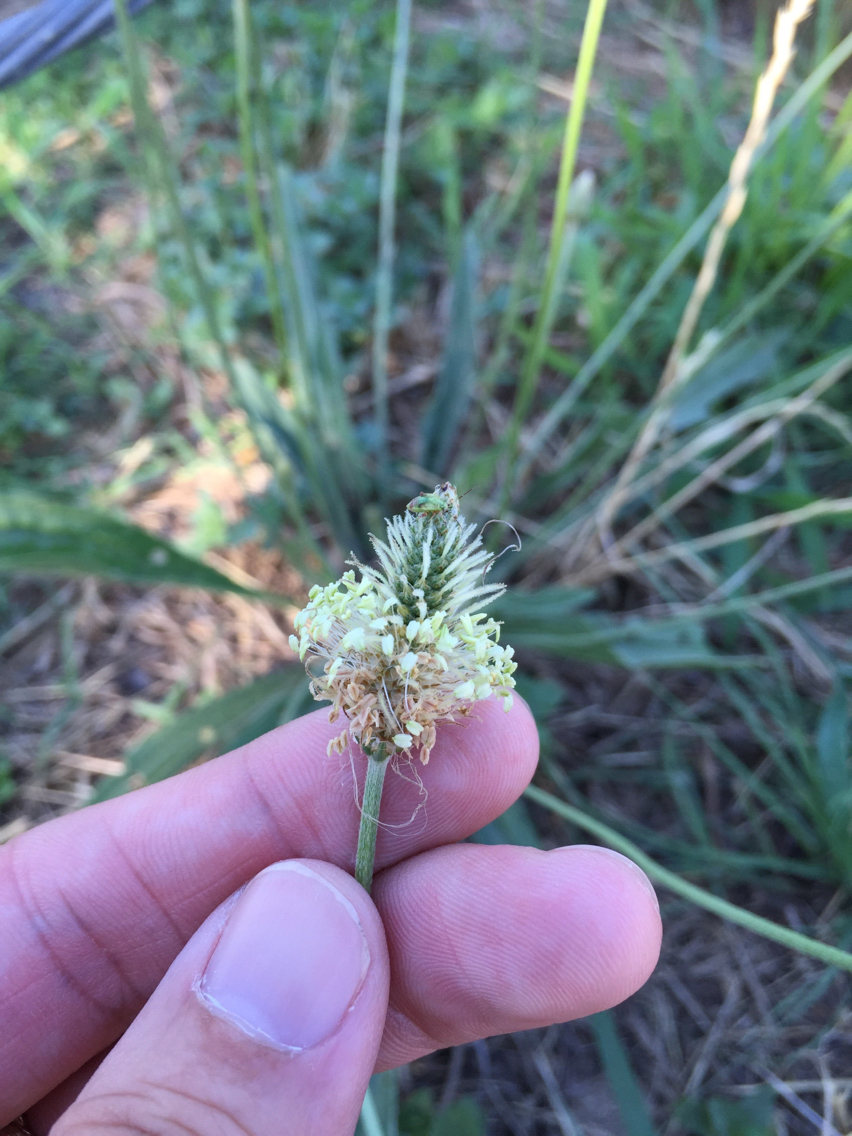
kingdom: Plantae
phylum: Tracheophyta
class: Magnoliopsida
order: Lamiales
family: Plantaginaceae
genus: Plantago
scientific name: Plantago lanceolata
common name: Ribwort plantain
